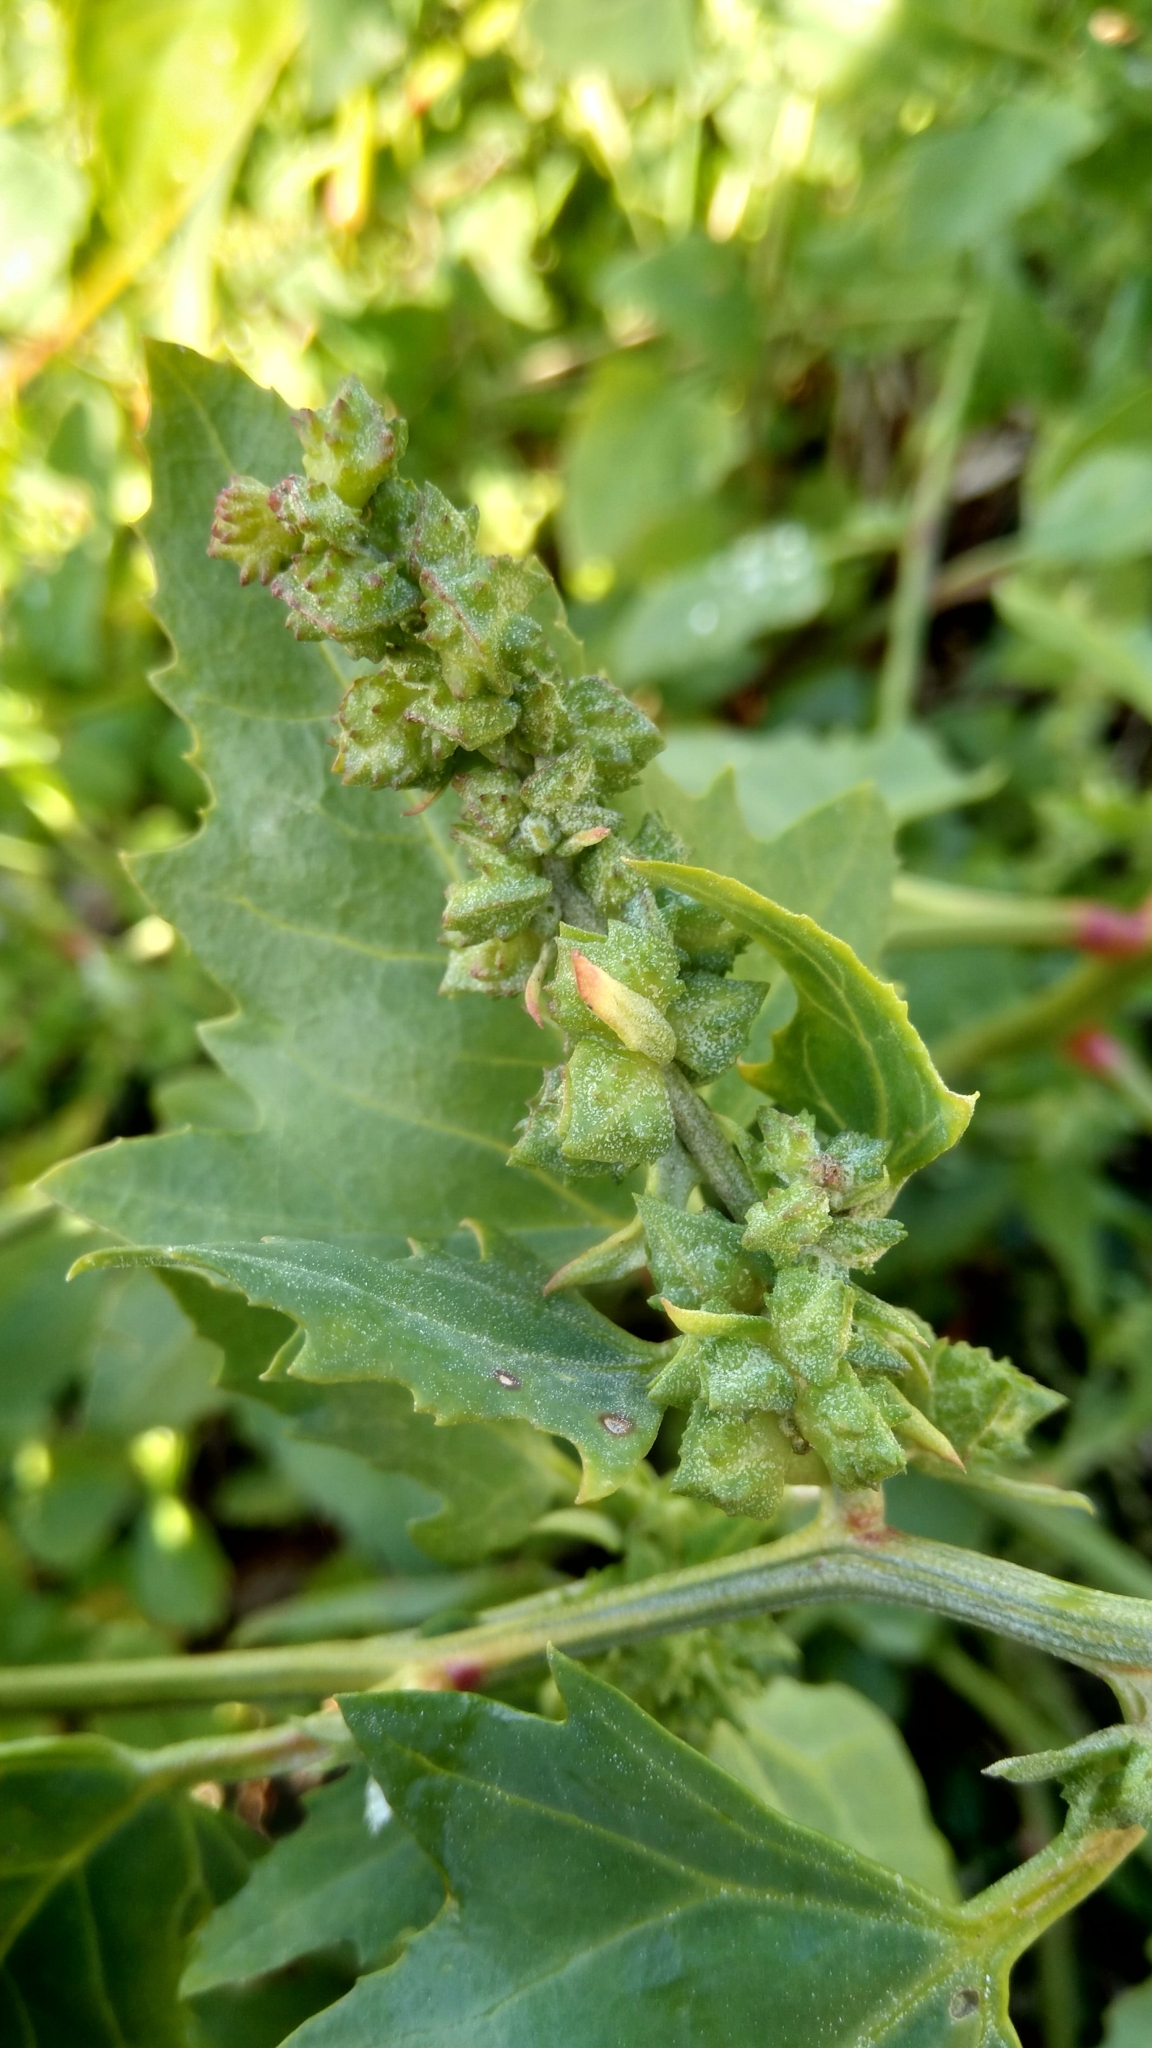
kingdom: Plantae
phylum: Tracheophyta
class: Magnoliopsida
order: Caryophyllales
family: Amaranthaceae
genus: Atriplex
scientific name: Atriplex prostrata
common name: Spear-leaved orache
